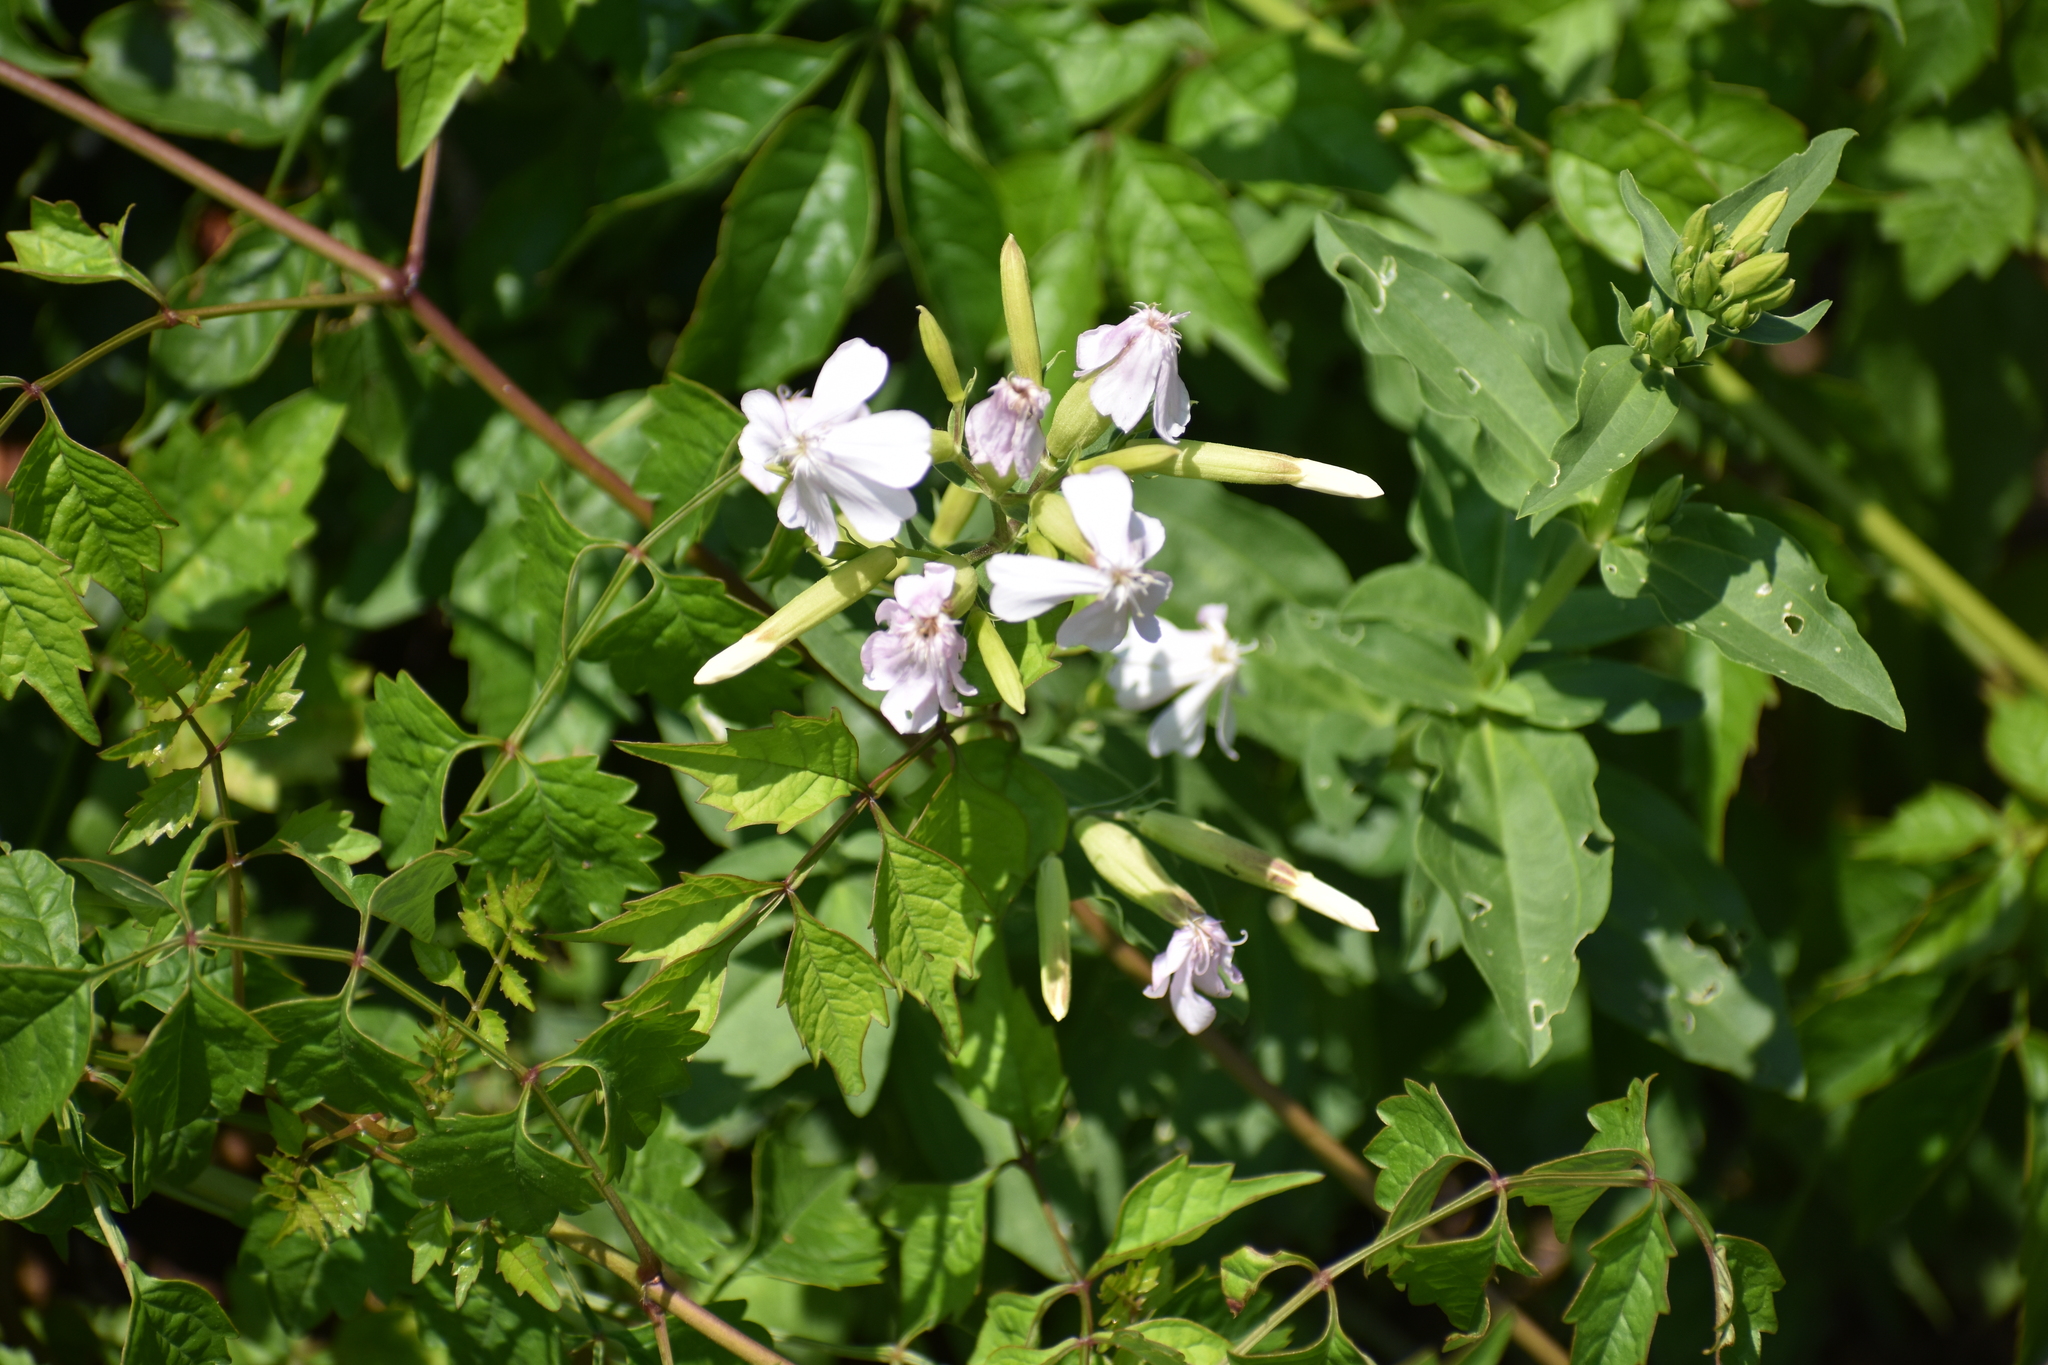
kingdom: Plantae
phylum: Tracheophyta
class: Magnoliopsida
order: Caryophyllales
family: Caryophyllaceae
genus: Saponaria
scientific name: Saponaria officinalis
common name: Soapwort
